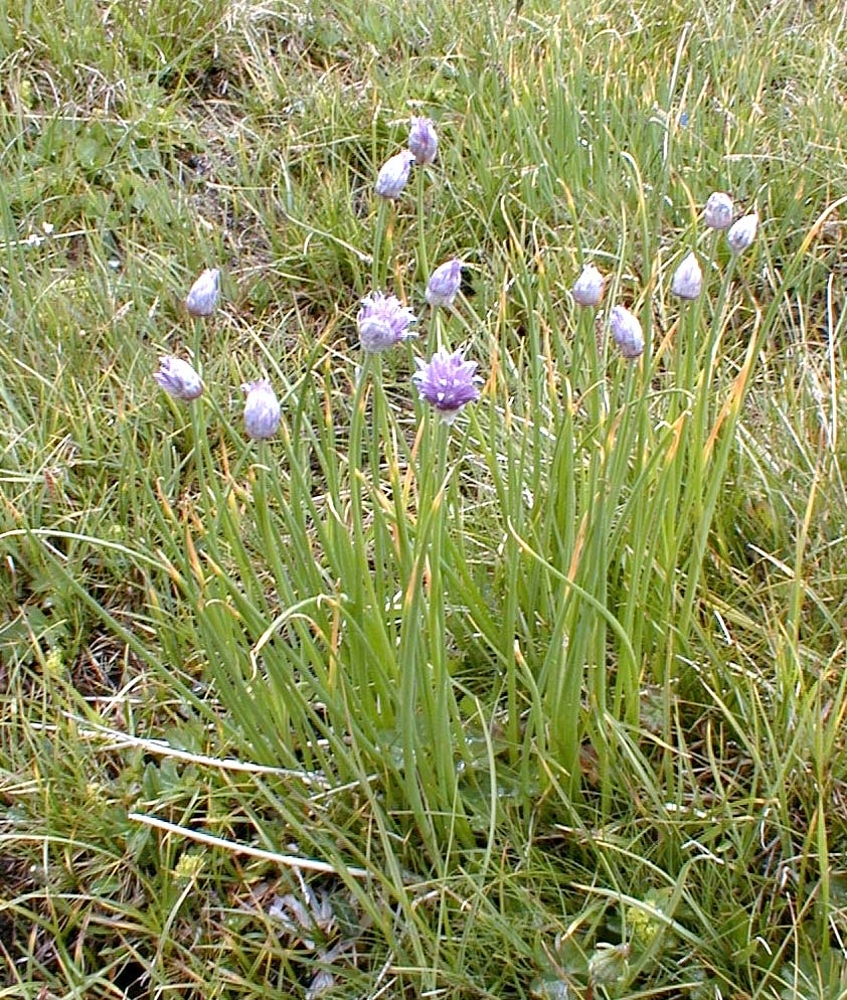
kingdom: Plantae
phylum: Tracheophyta
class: Liliopsida
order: Asparagales
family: Amaryllidaceae
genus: Allium
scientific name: Allium schoenoprasum
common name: Chives
